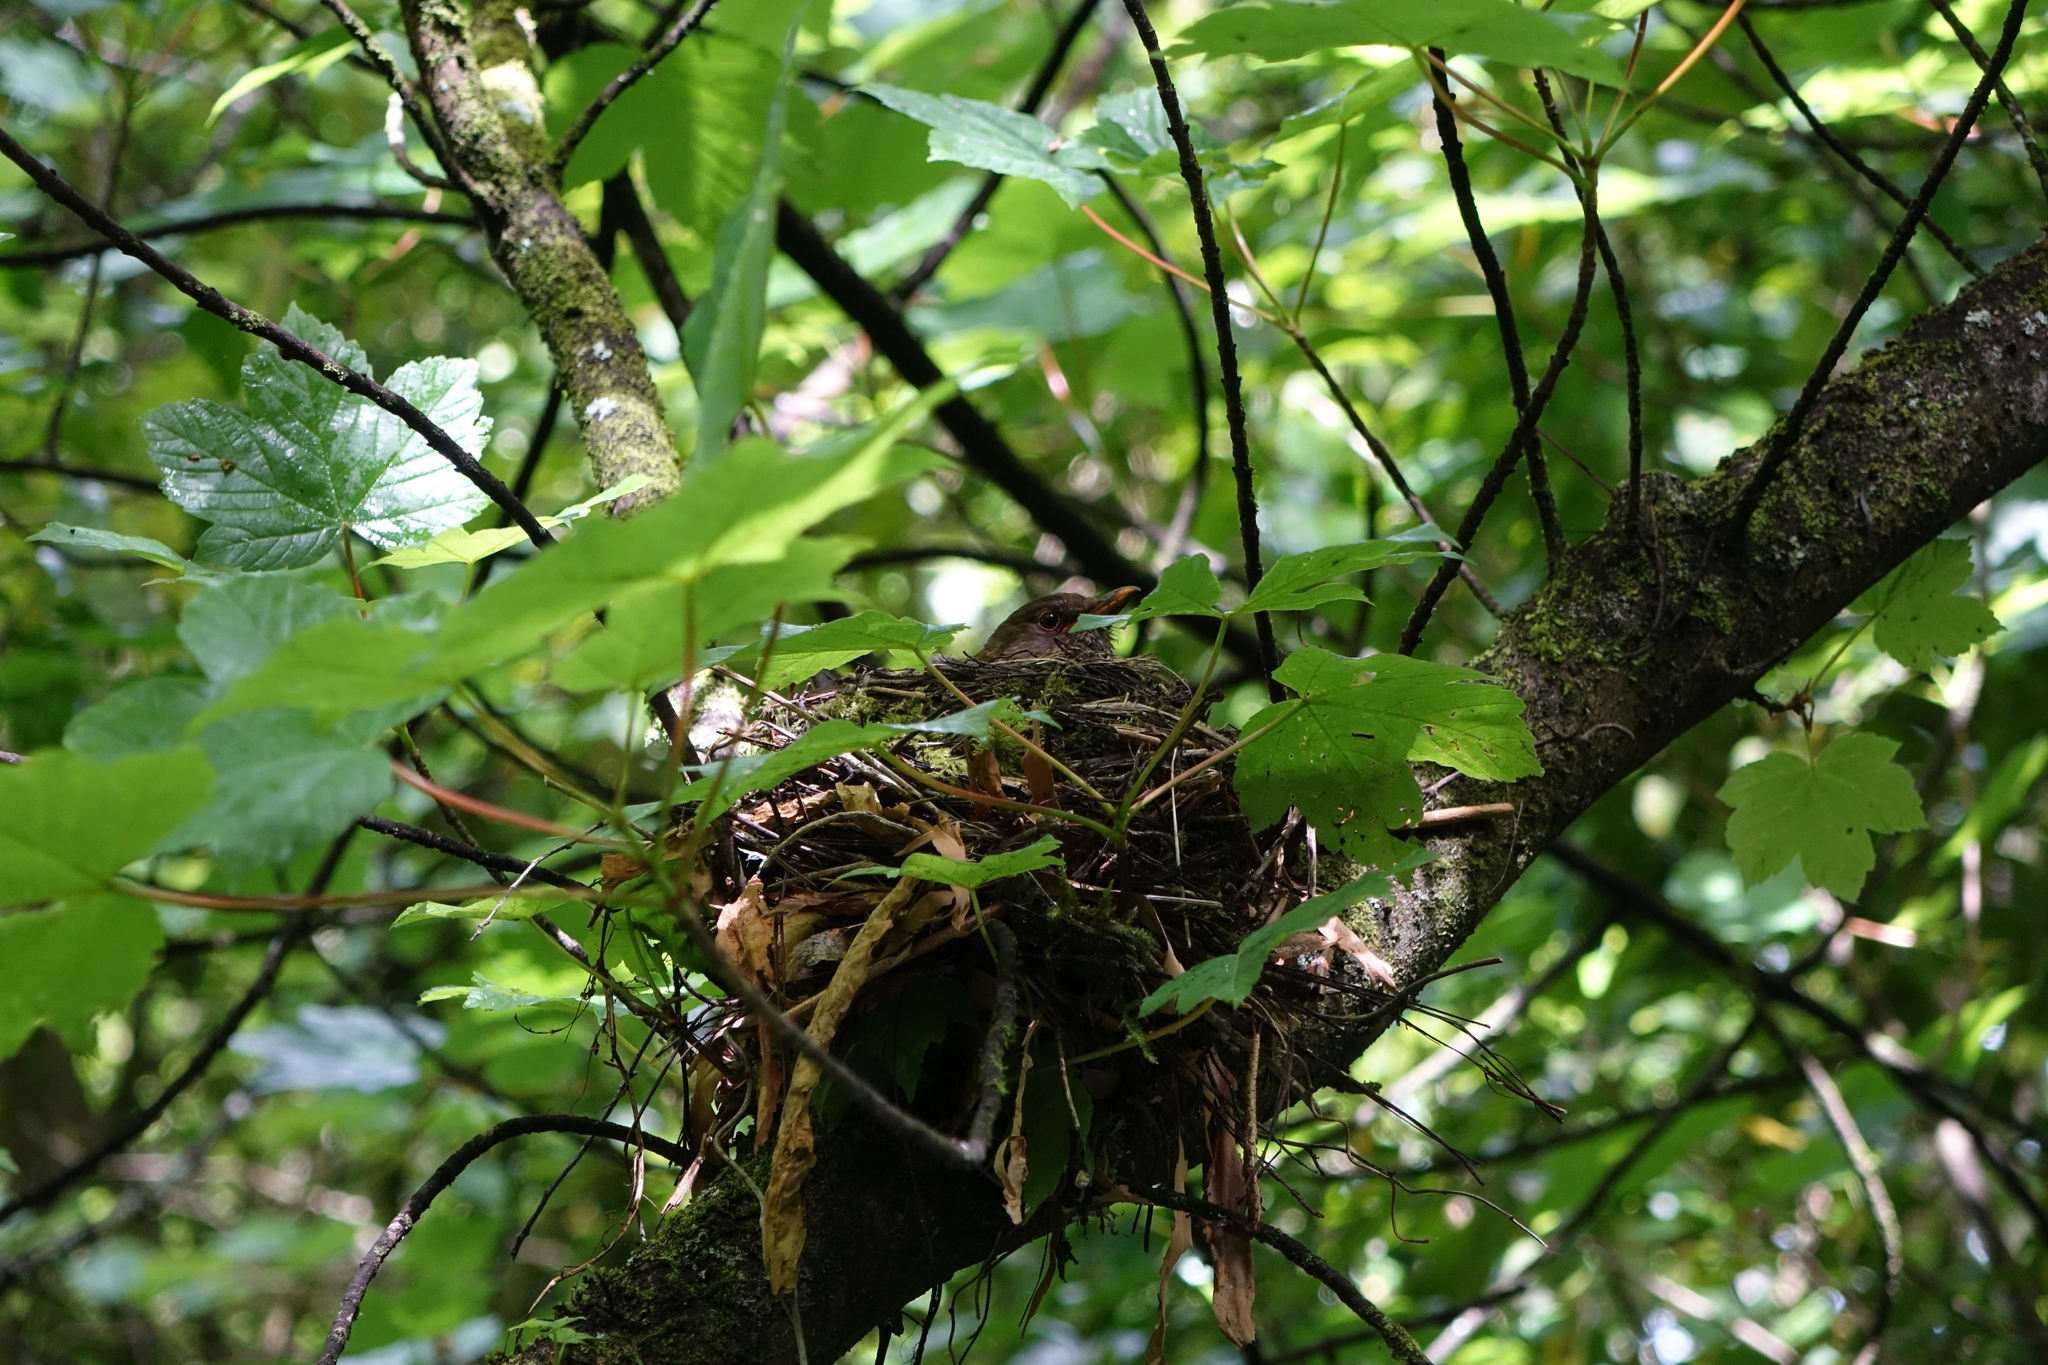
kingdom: Animalia
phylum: Chordata
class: Aves
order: Passeriformes
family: Turdidae
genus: Turdus
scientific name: Turdus merula
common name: Common blackbird
